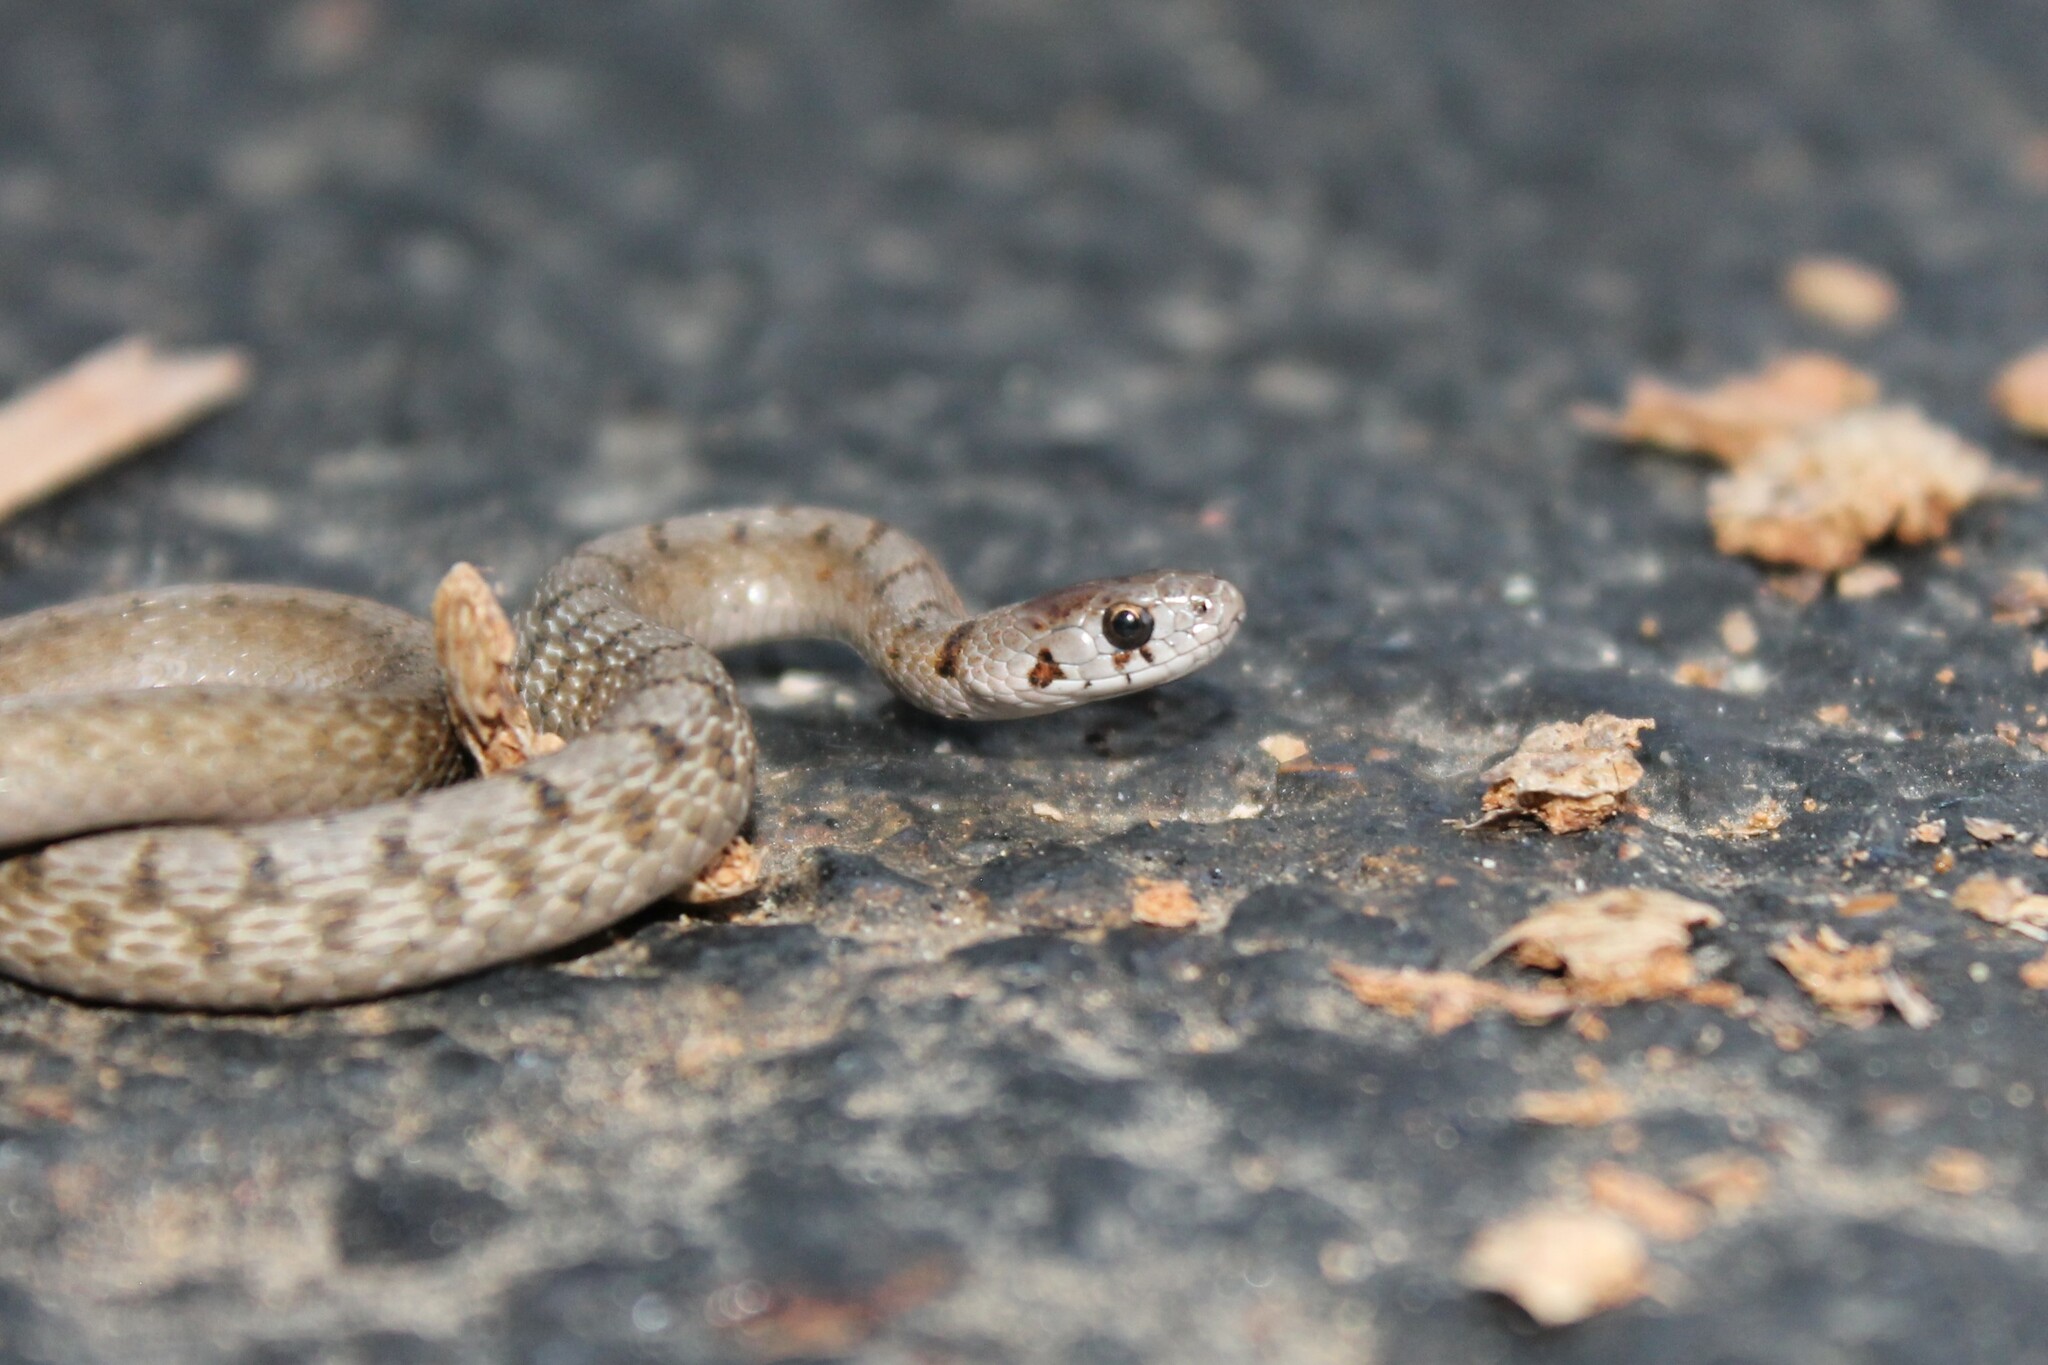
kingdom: Animalia
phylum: Chordata
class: Squamata
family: Colubridae
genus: Storeria
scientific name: Storeria dekayi
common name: (dekay’s) brown snake
